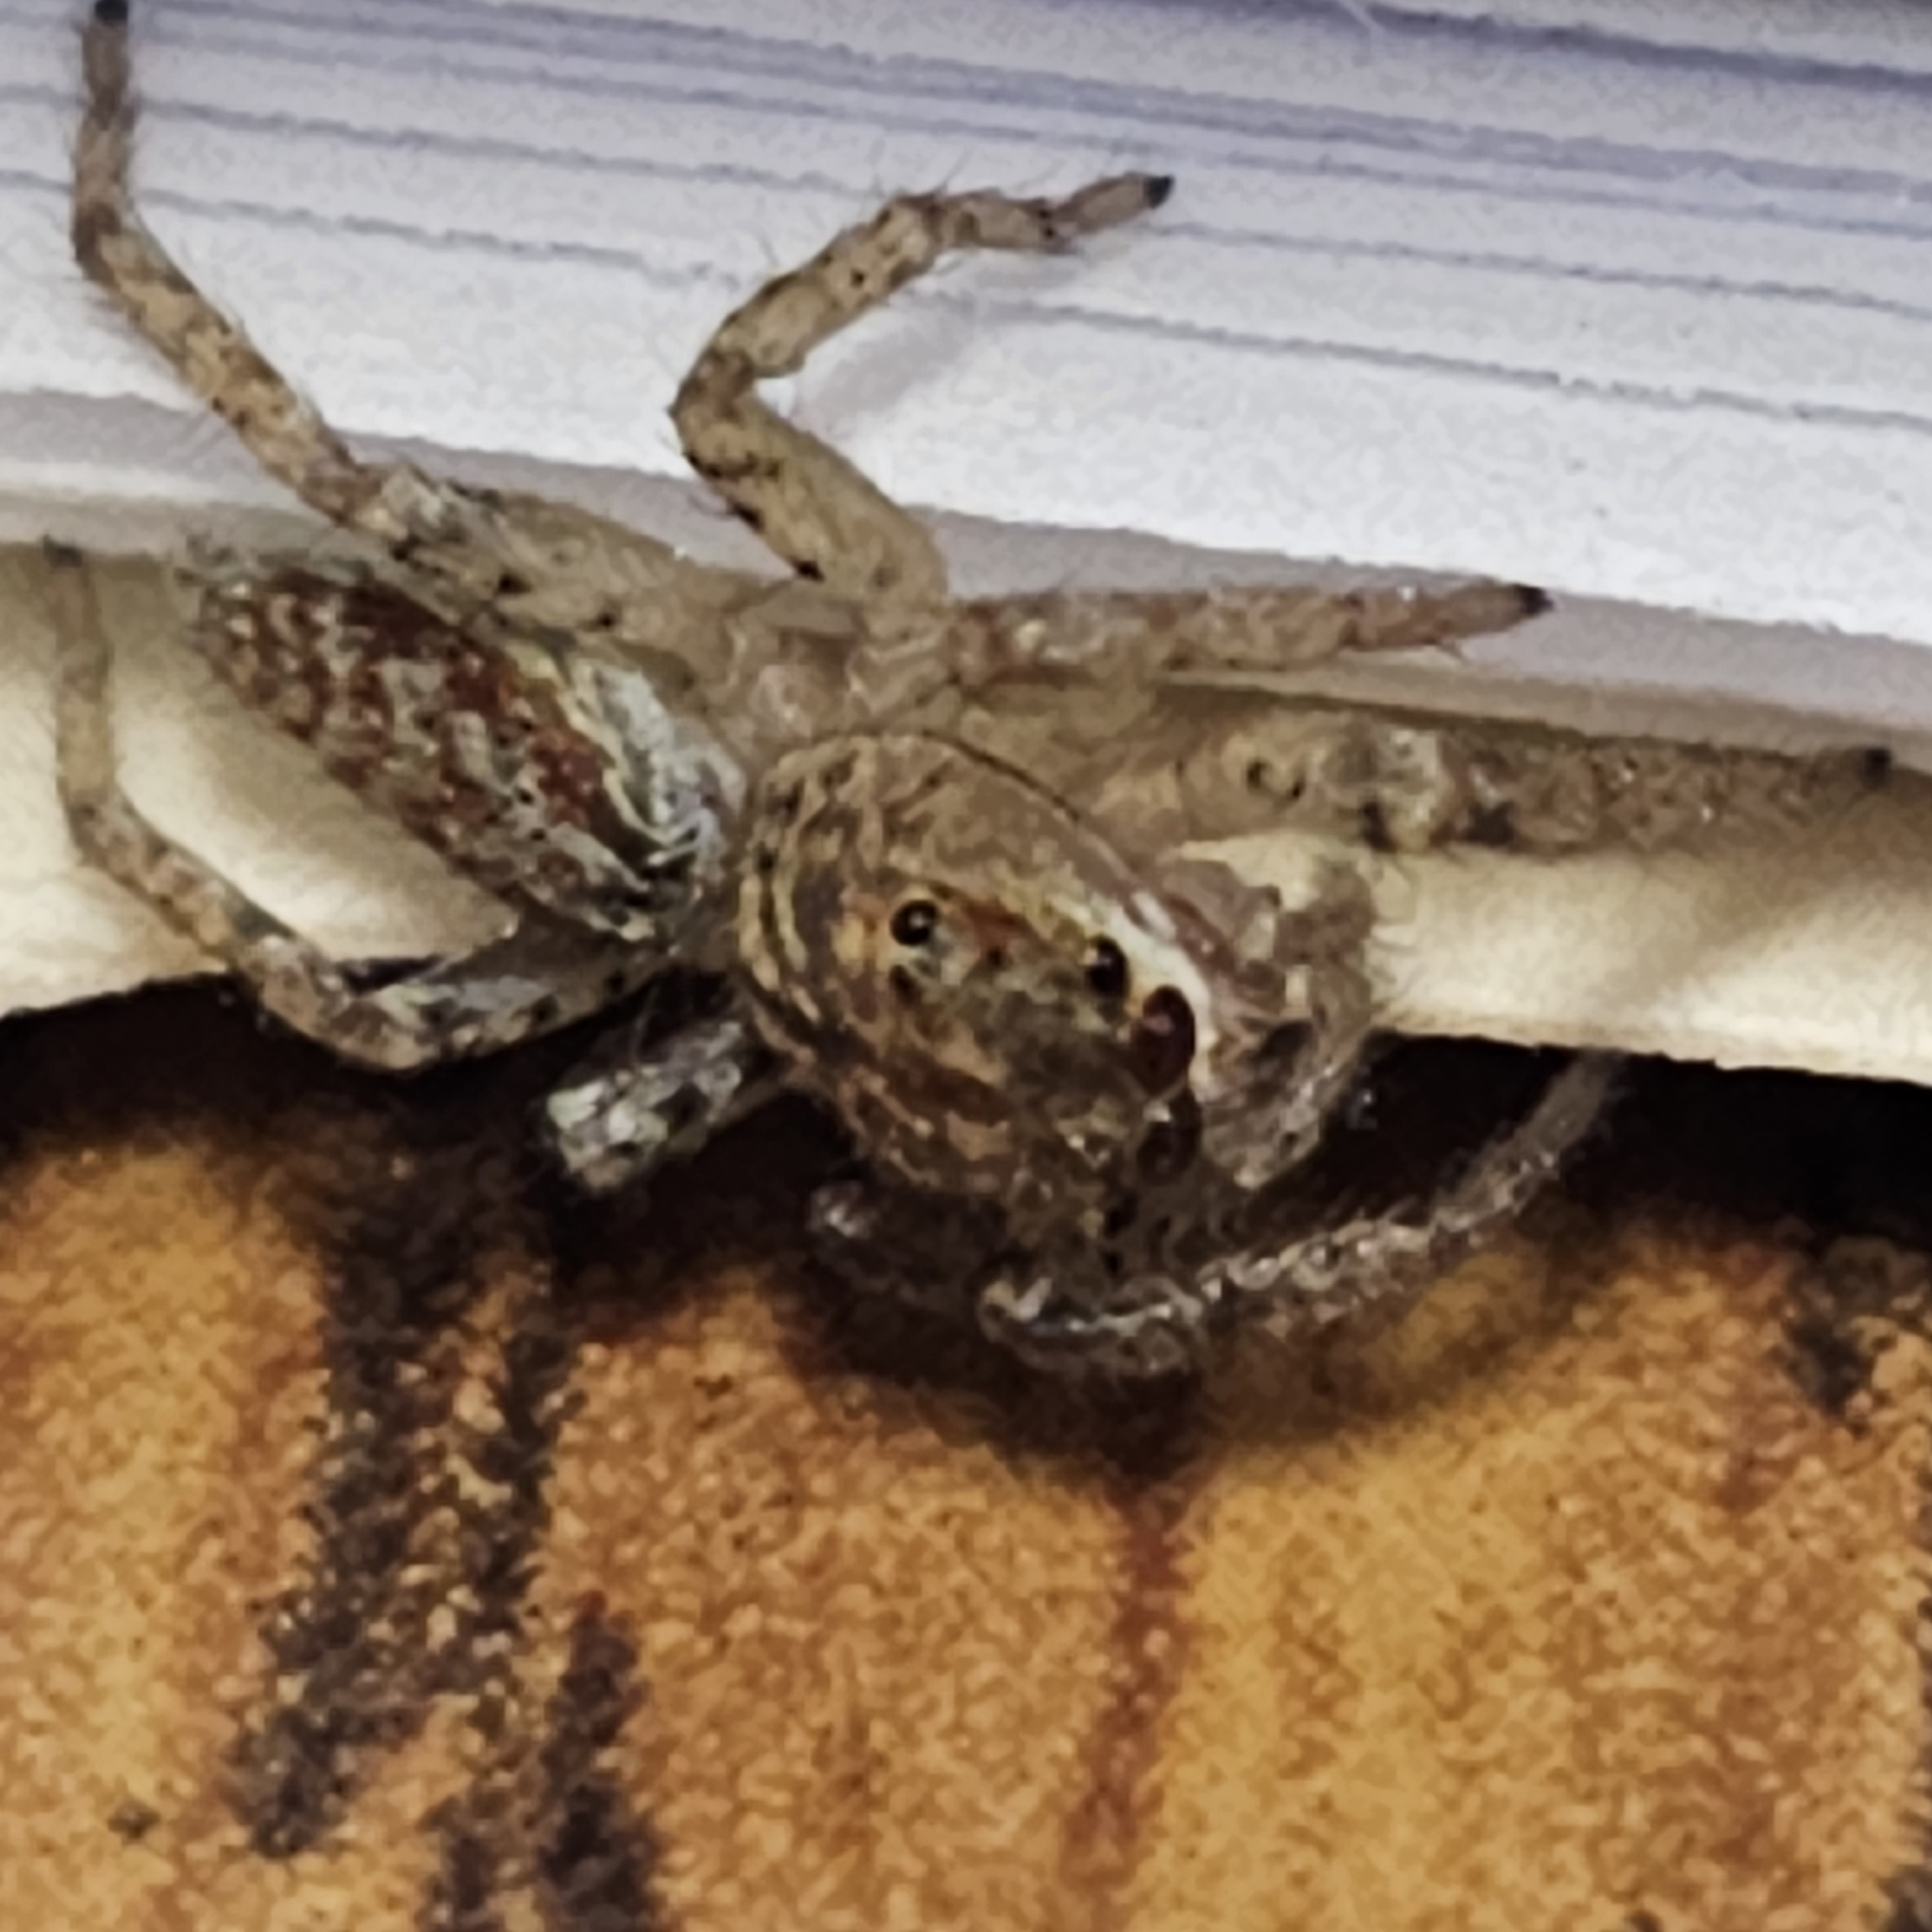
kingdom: Animalia
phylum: Arthropoda
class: Arachnida
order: Araneae
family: Salticidae
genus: Maevia
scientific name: Maevia inclemens
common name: Dimorphic jumper
